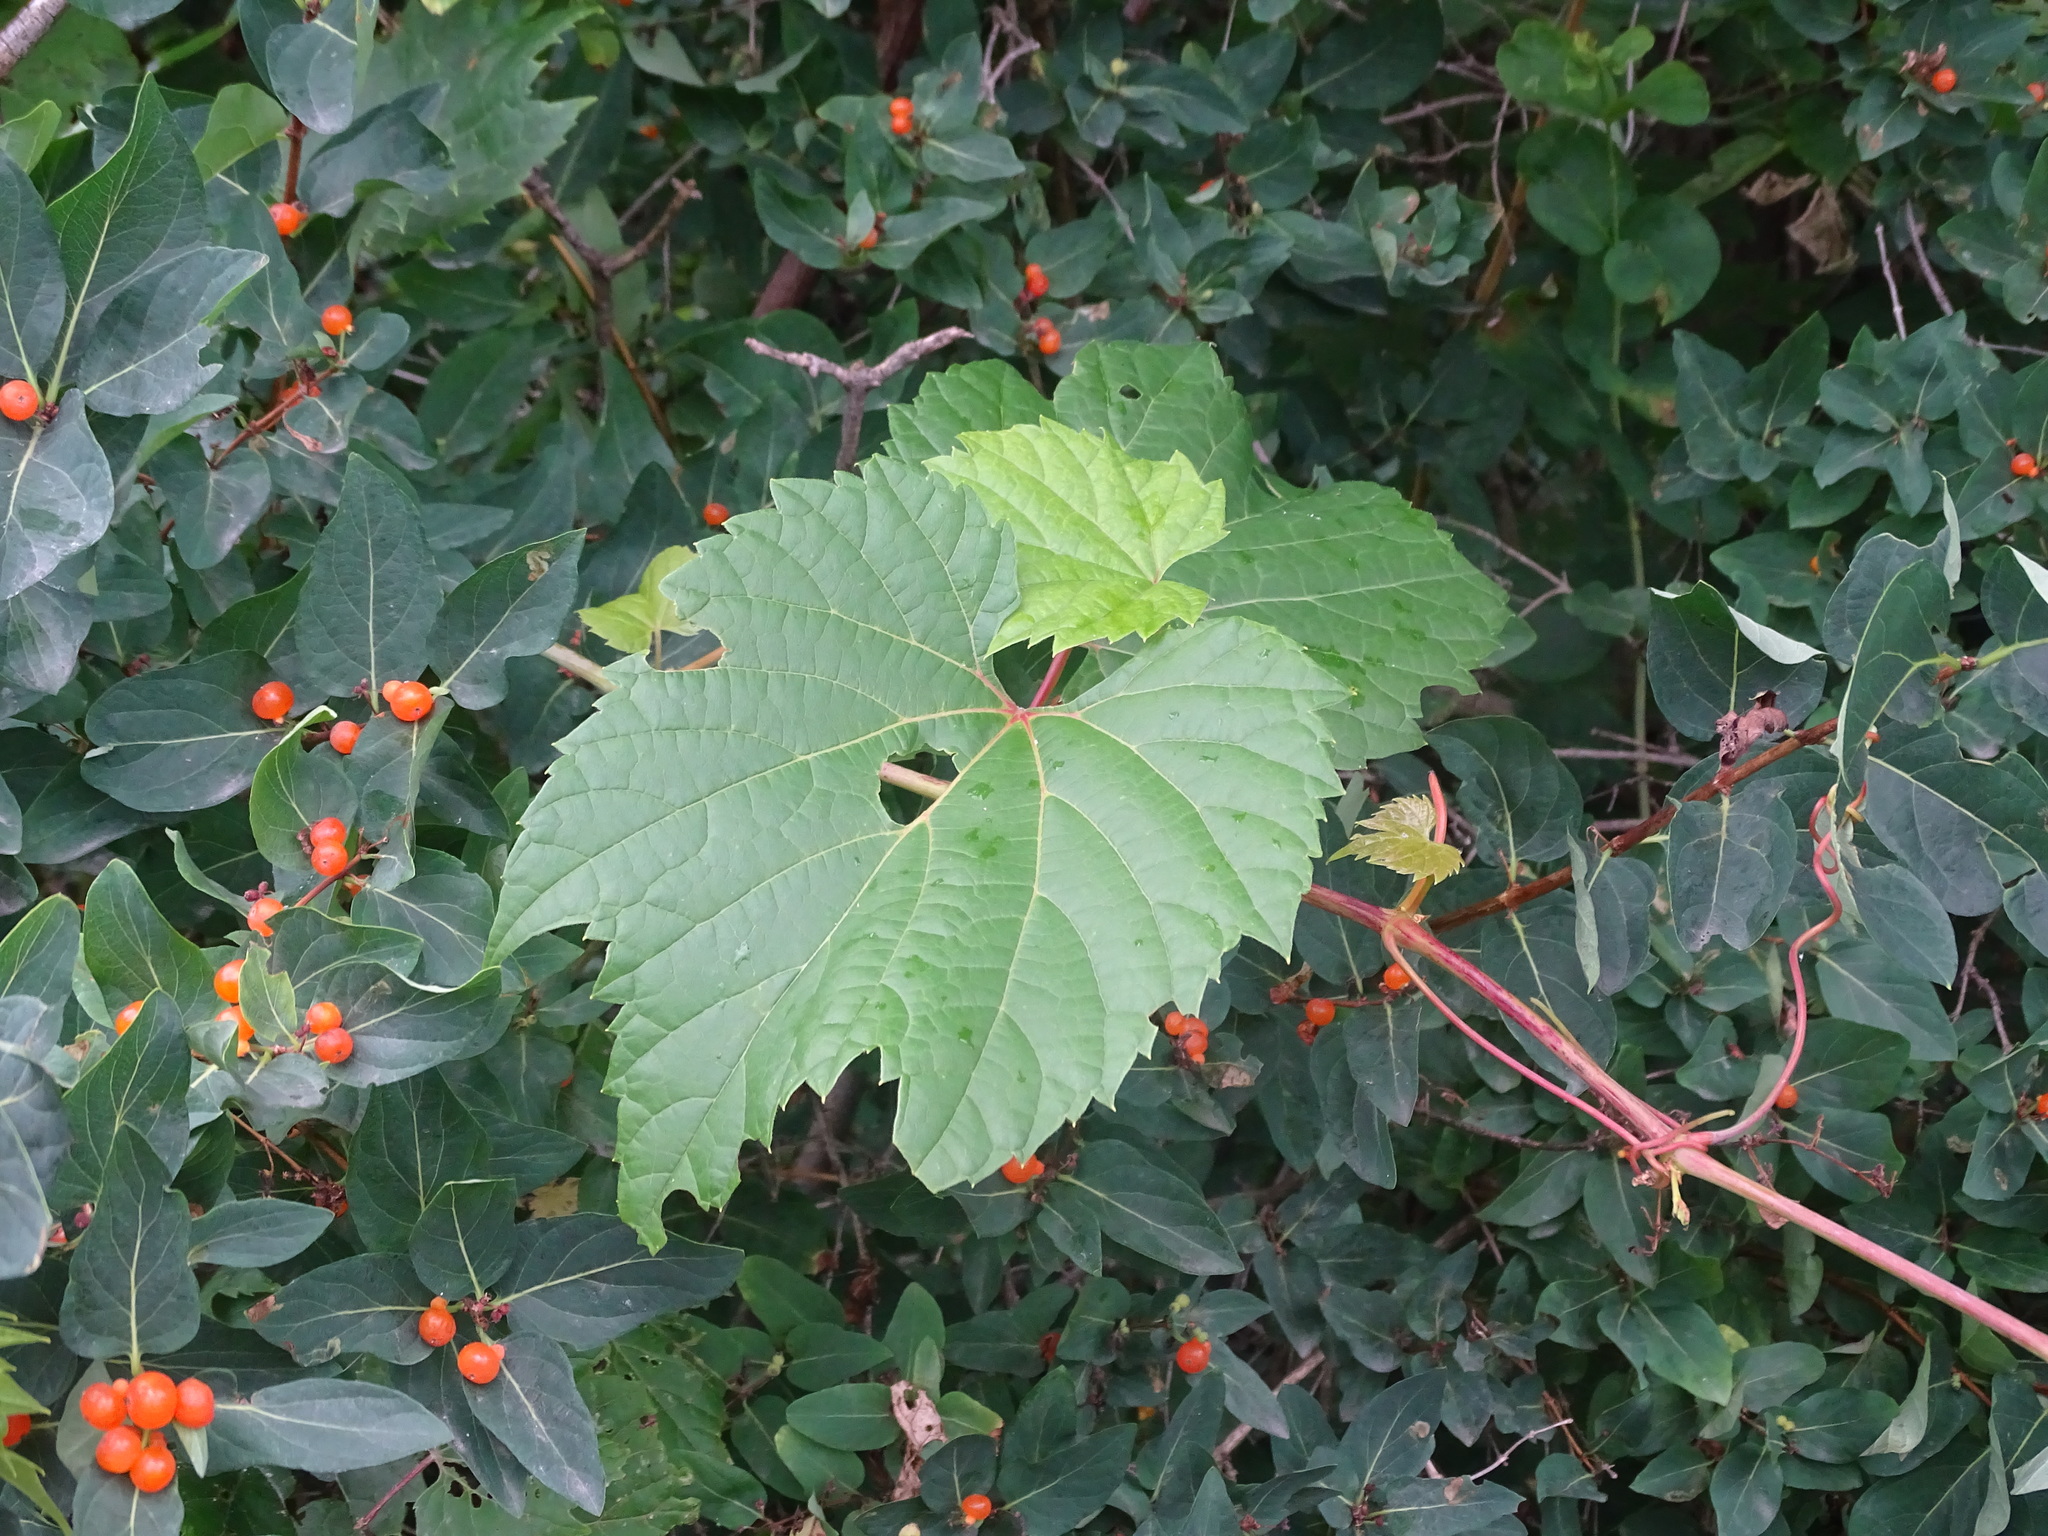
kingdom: Plantae
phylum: Tracheophyta
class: Magnoliopsida
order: Vitales
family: Vitaceae
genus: Vitis
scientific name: Vitis riparia
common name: Frost grape
